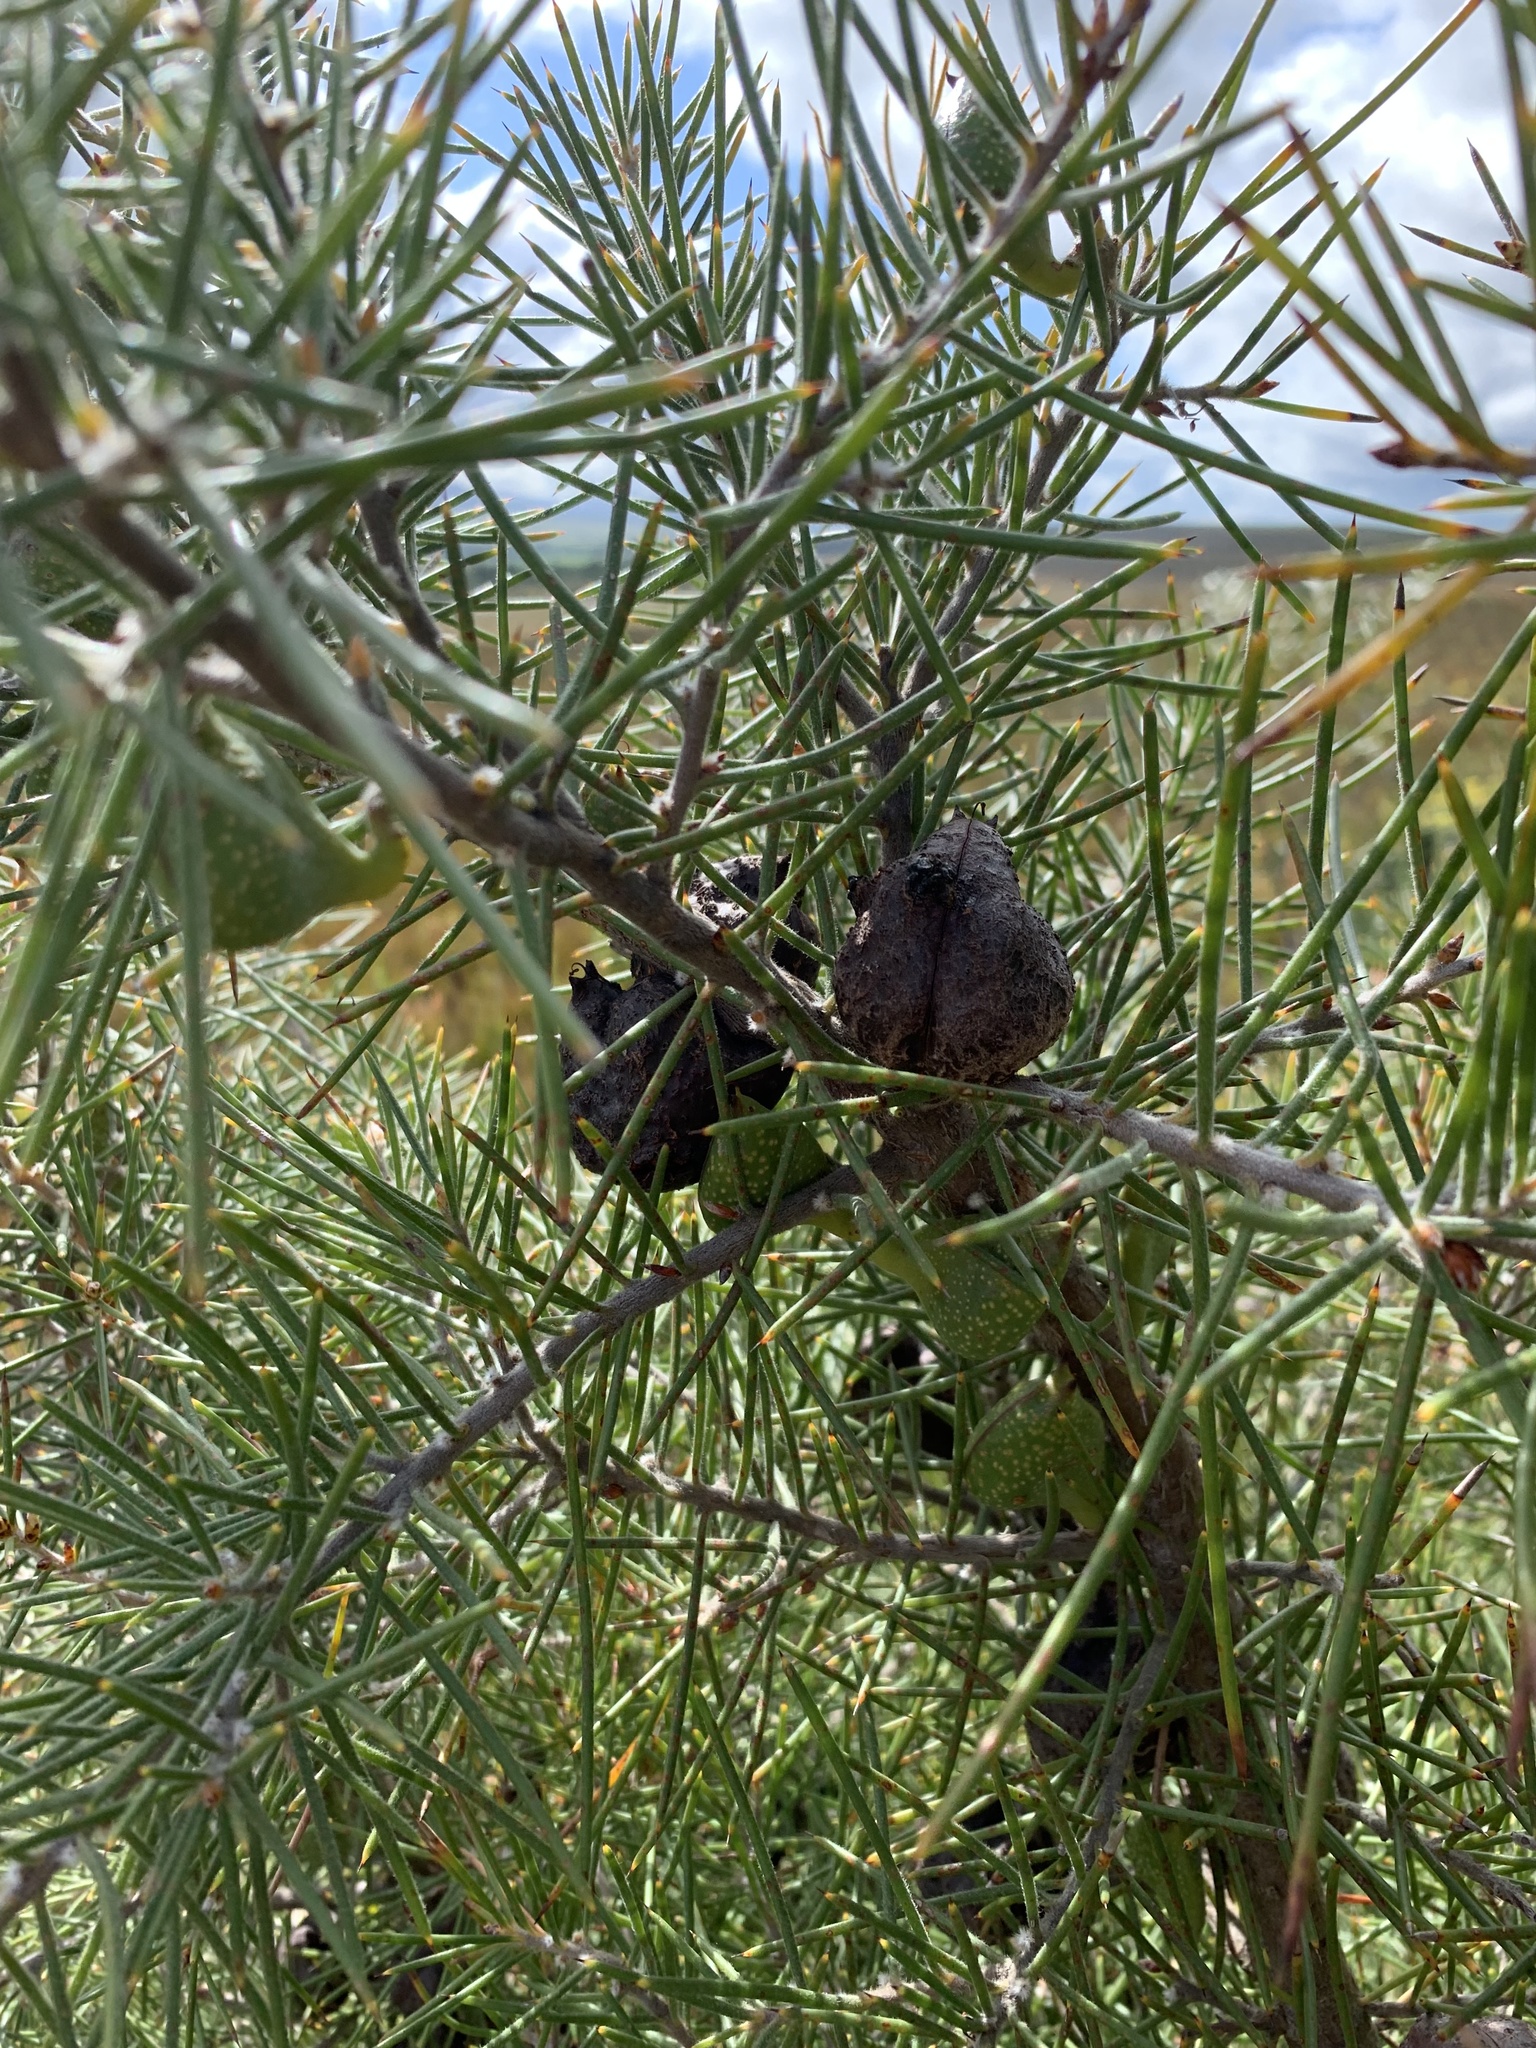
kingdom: Plantae
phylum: Tracheophyta
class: Magnoliopsida
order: Proteales
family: Proteaceae
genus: Hakea
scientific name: Hakea gibbosa
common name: Rock hakea
